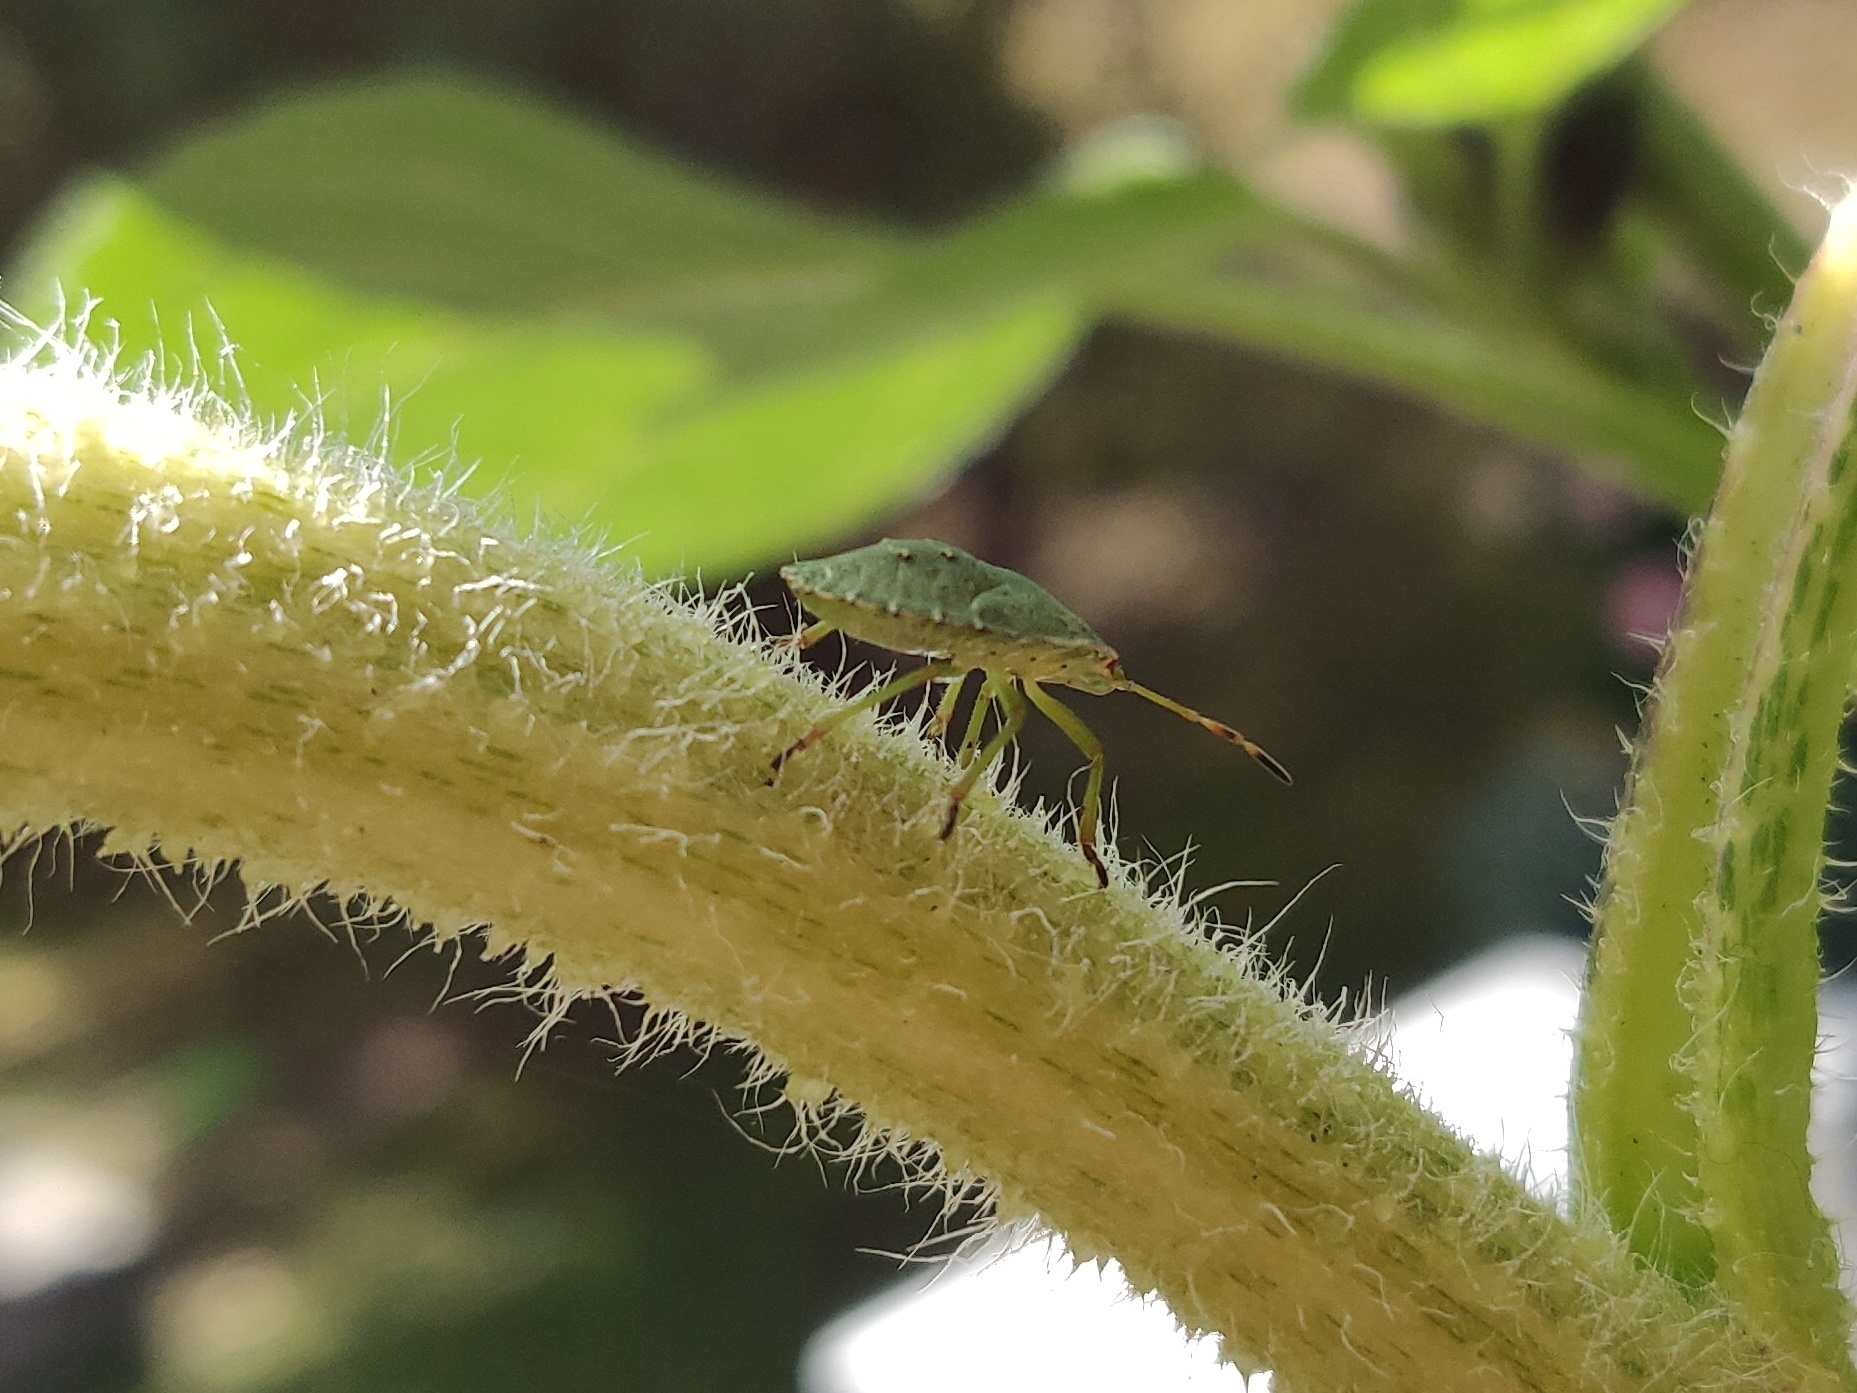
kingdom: Animalia
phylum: Arthropoda
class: Insecta
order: Hemiptera
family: Pentatomidae
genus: Palomena
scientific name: Palomena prasina
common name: Green shieldbug
